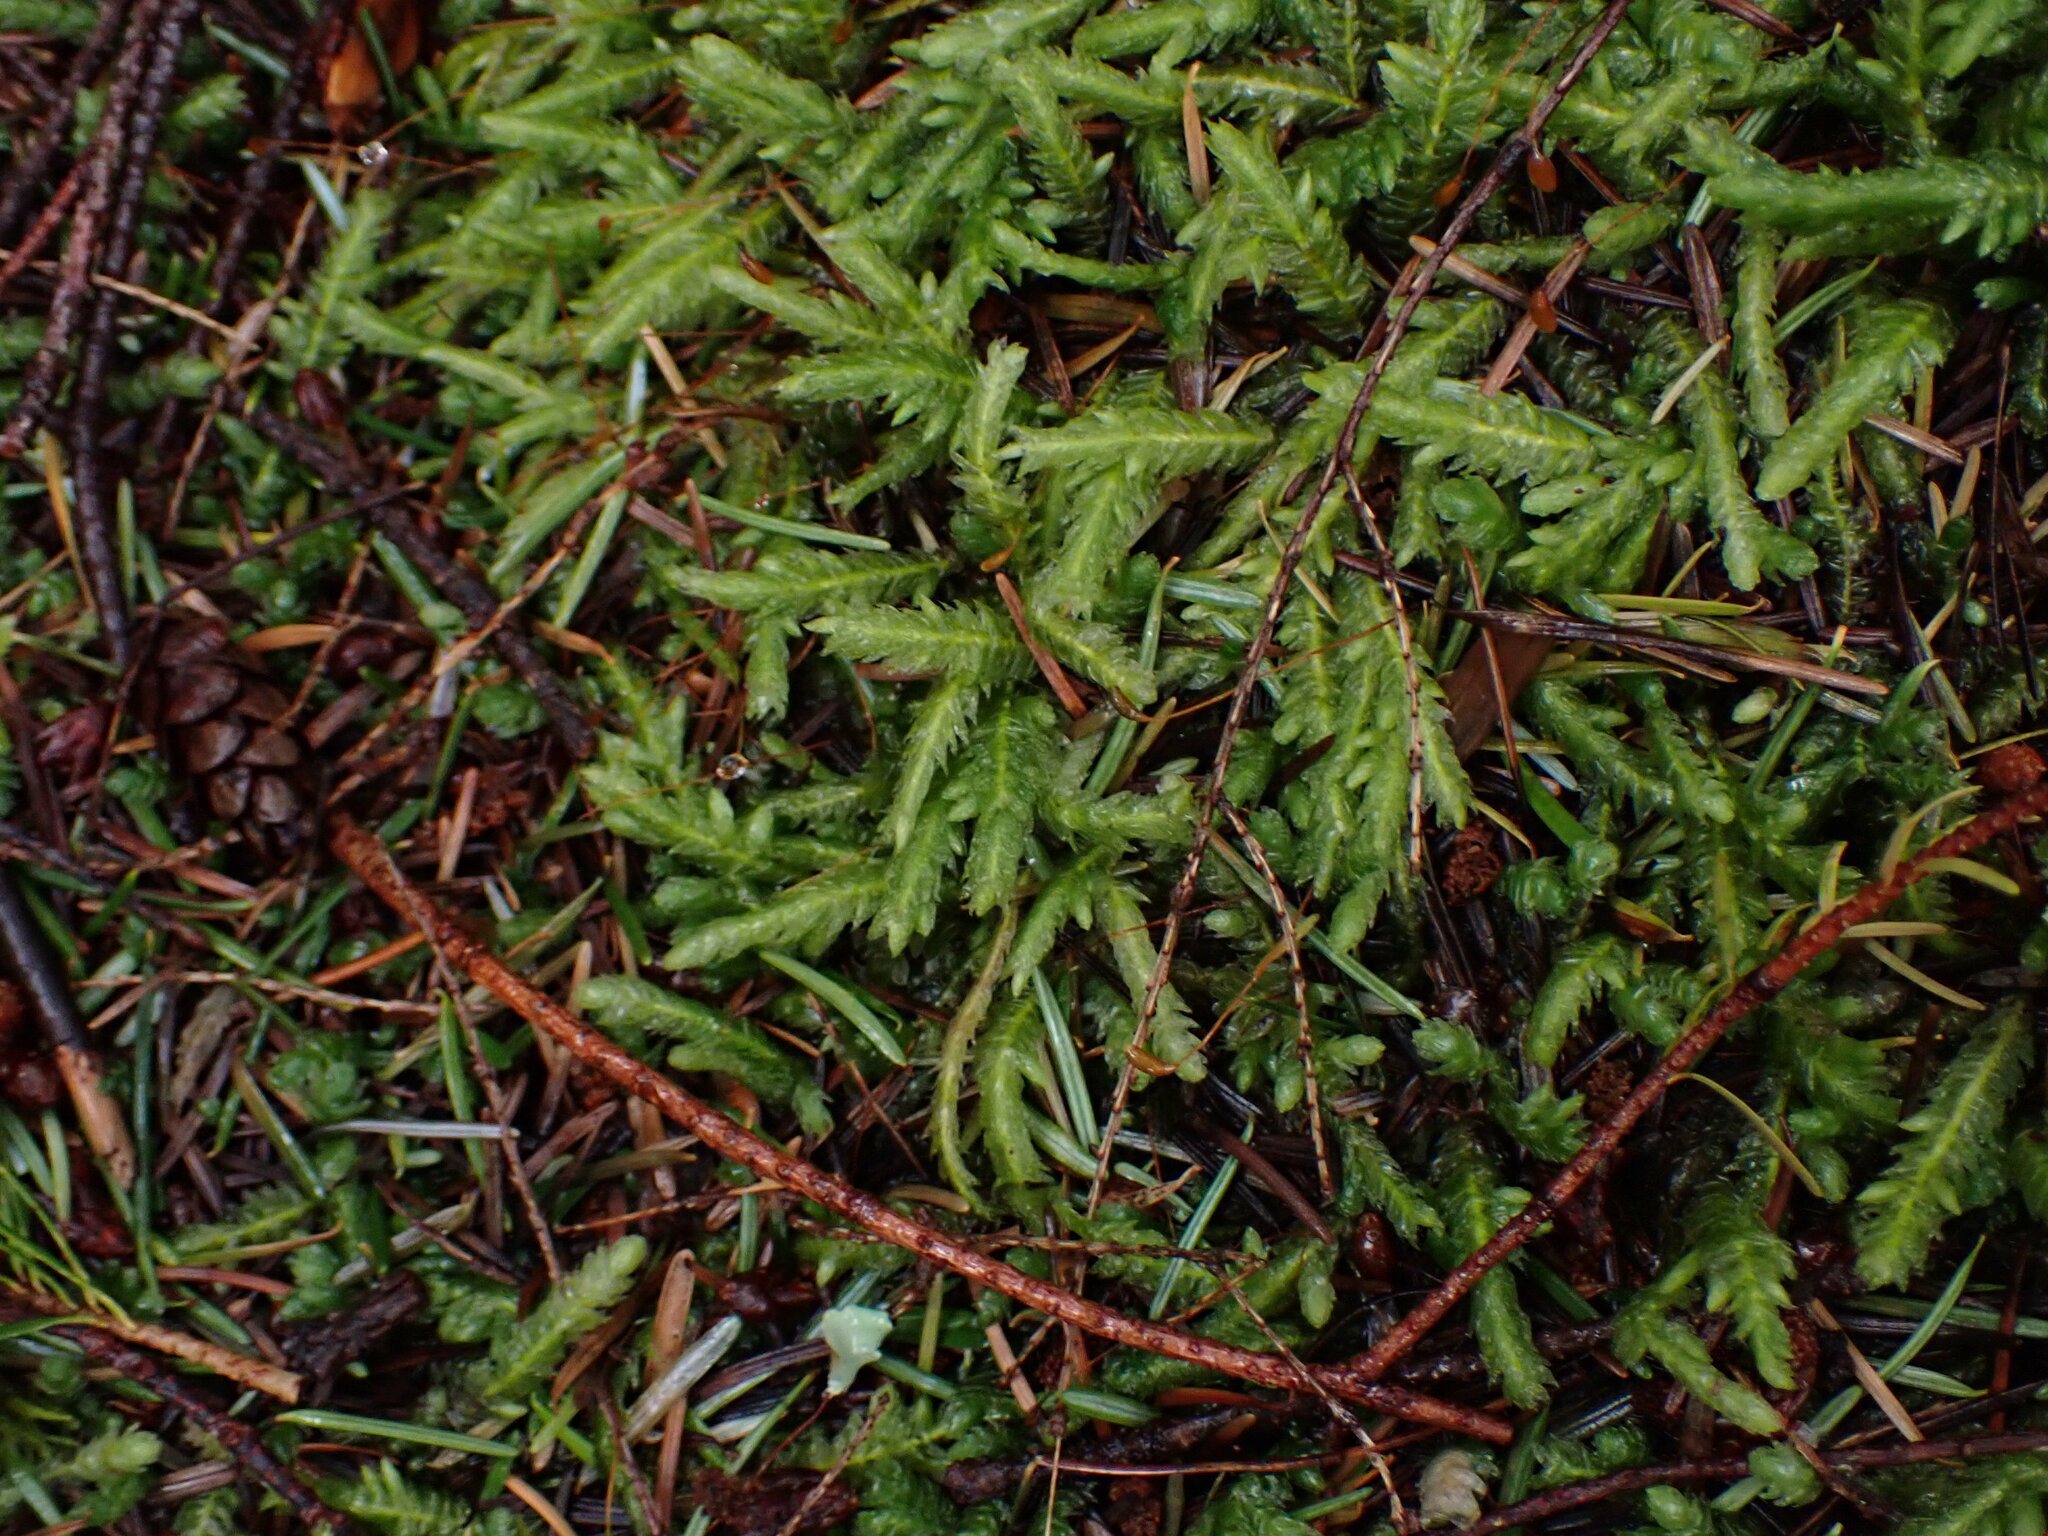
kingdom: Plantae
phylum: Bryophyta
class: Bryopsida
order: Hypnales
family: Plagiotheciaceae
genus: Plagiothecium
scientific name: Plagiothecium undulatum
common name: Waved silk-moss
